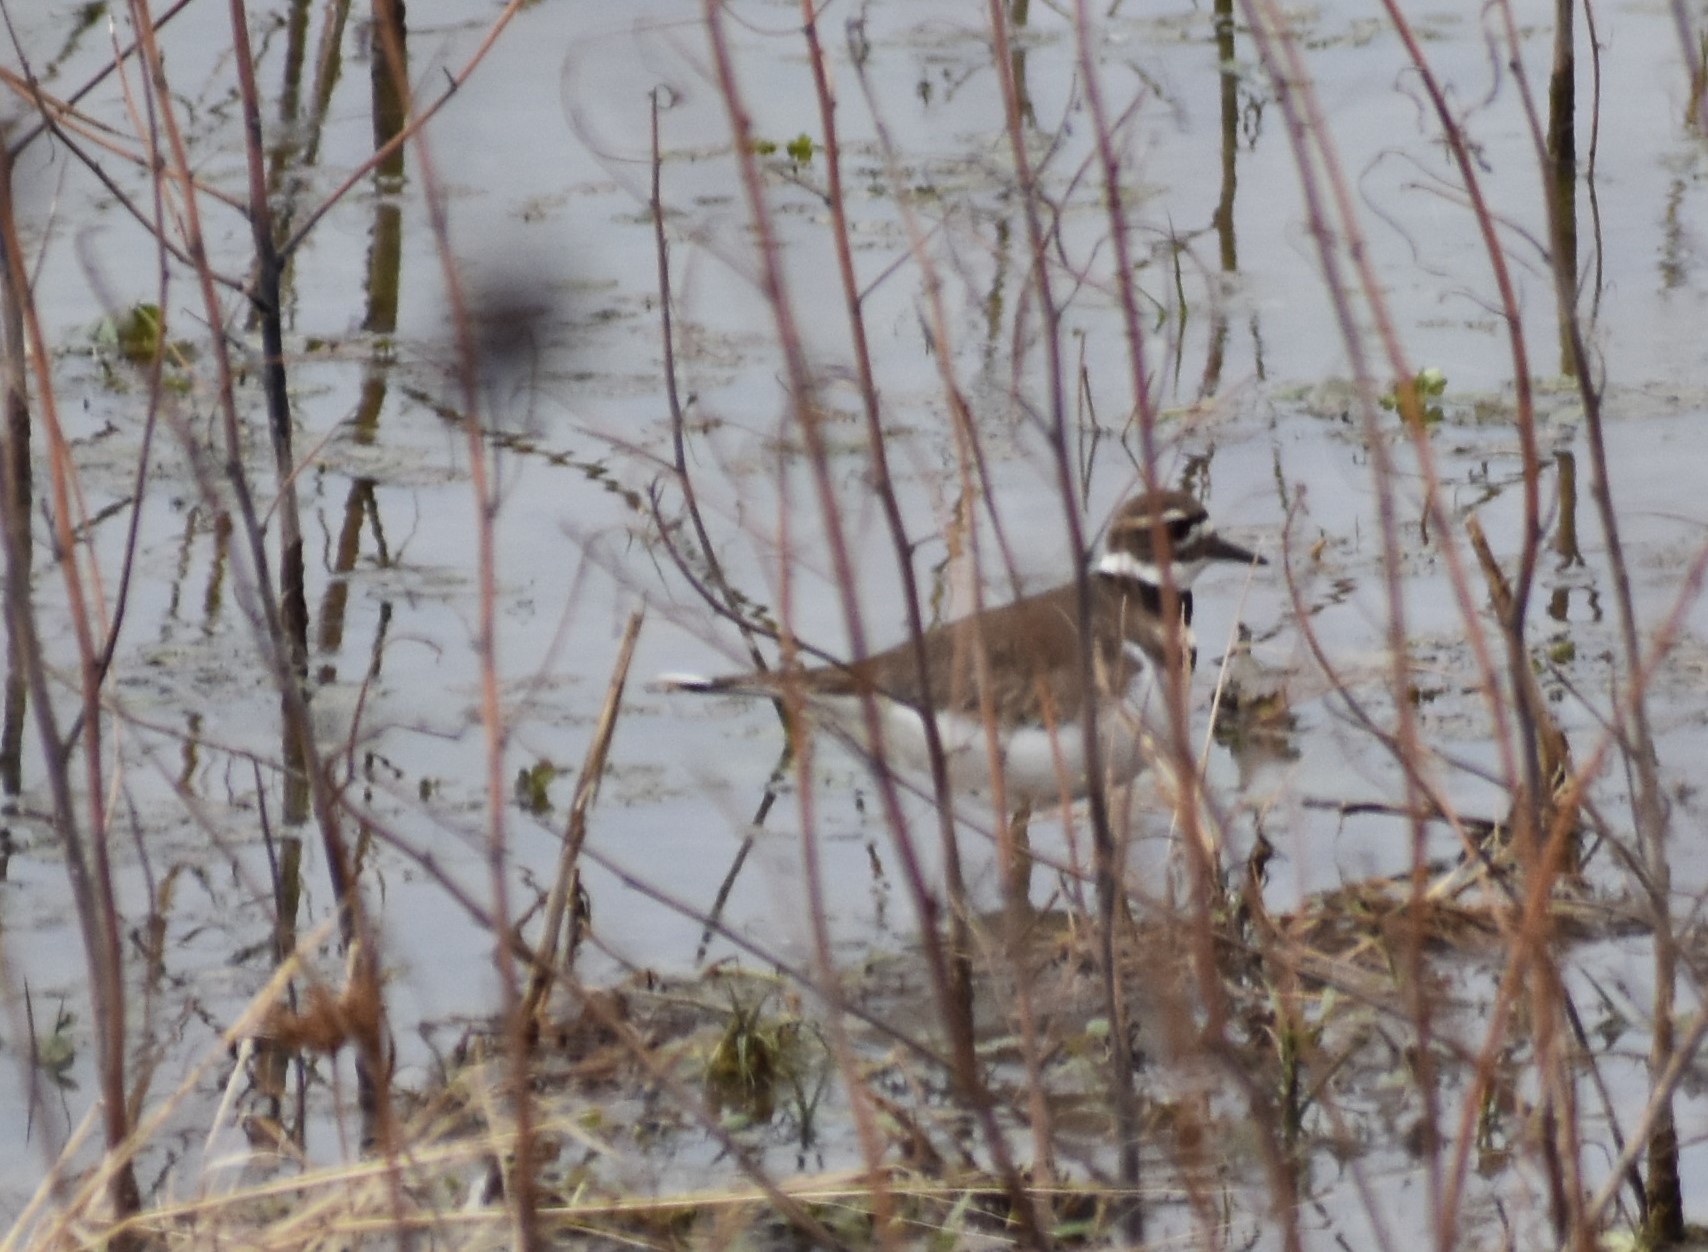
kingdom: Animalia
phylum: Chordata
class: Aves
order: Charadriiformes
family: Charadriidae
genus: Charadrius
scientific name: Charadrius vociferus
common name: Killdeer
